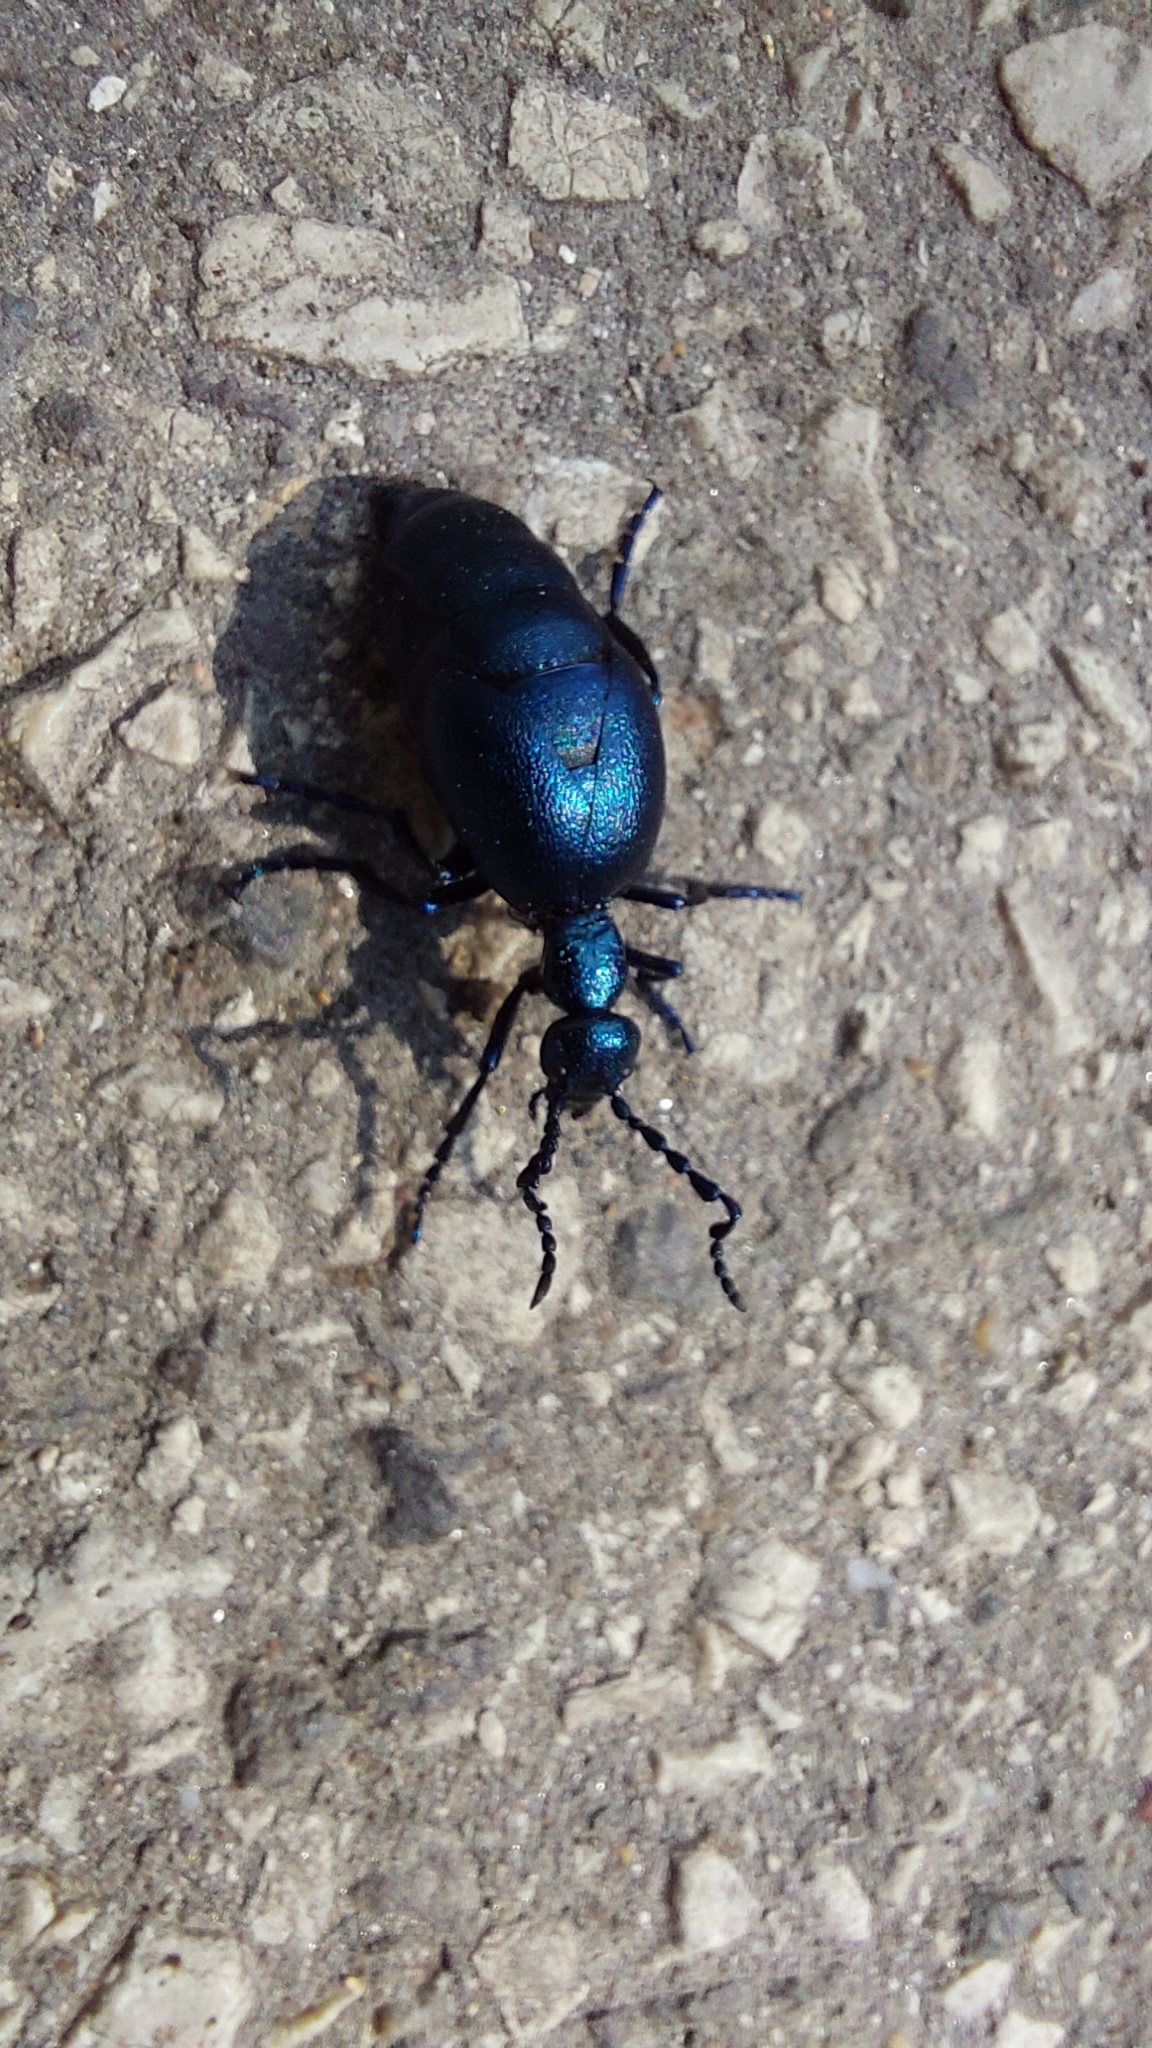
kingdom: Animalia
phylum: Arthropoda
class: Insecta
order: Coleoptera
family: Meloidae
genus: Meloe
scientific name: Meloe violaceus
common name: Violet oil-beetle
